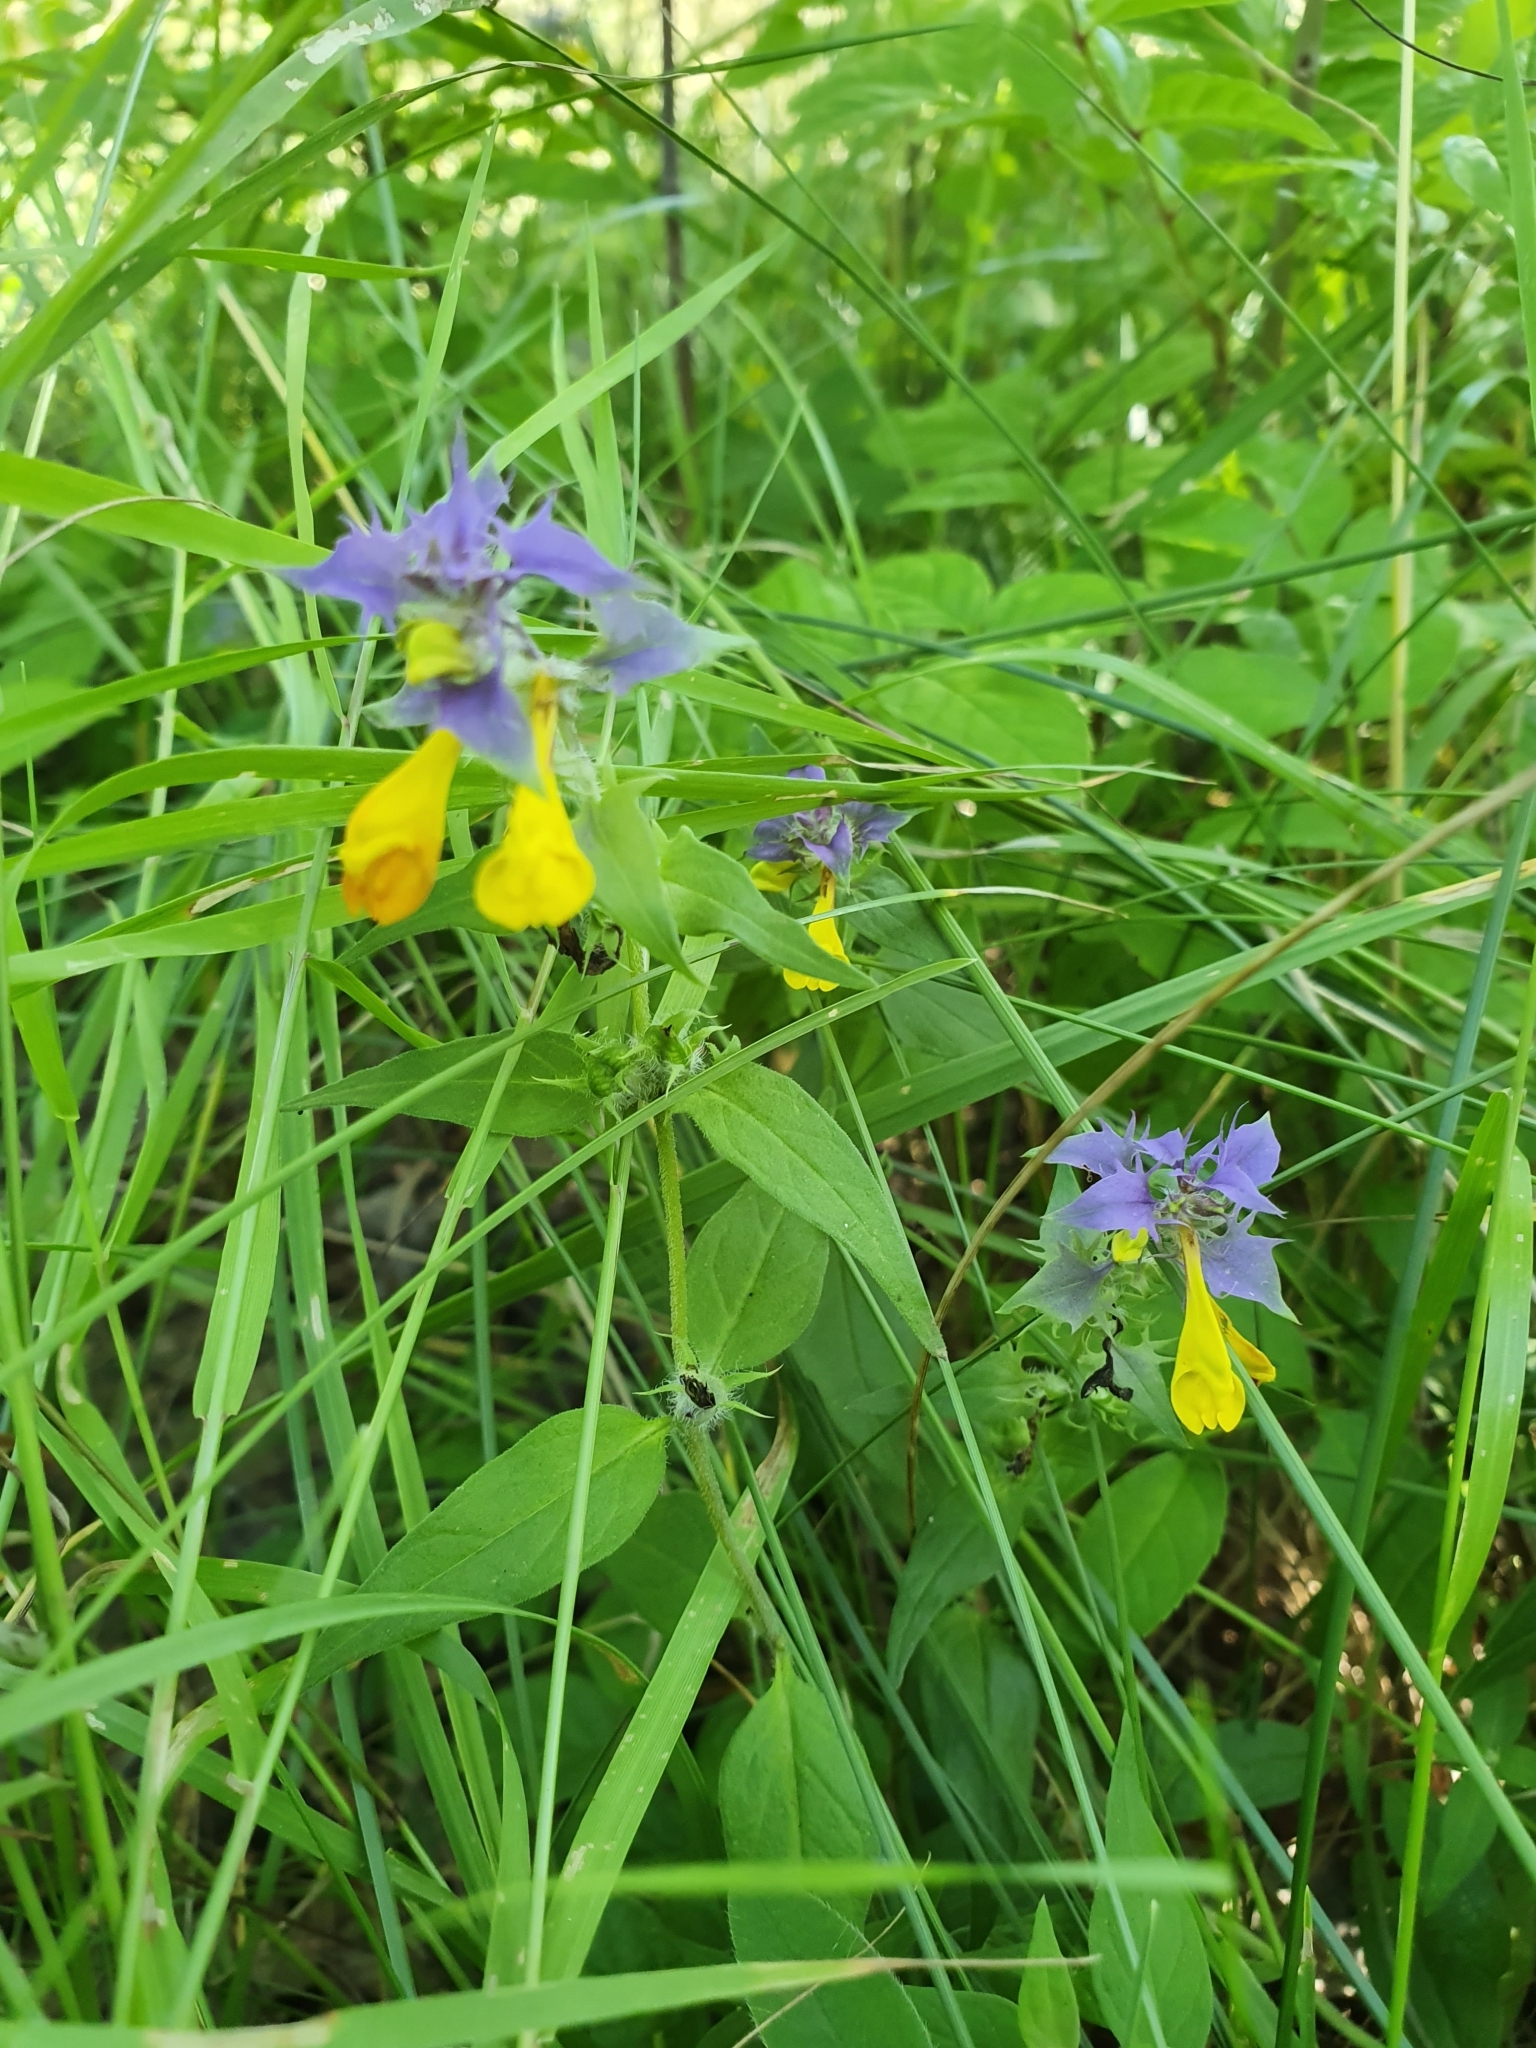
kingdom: Plantae
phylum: Tracheophyta
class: Magnoliopsida
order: Lamiales
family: Orobanchaceae
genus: Melampyrum
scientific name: Melampyrum nemorosum
